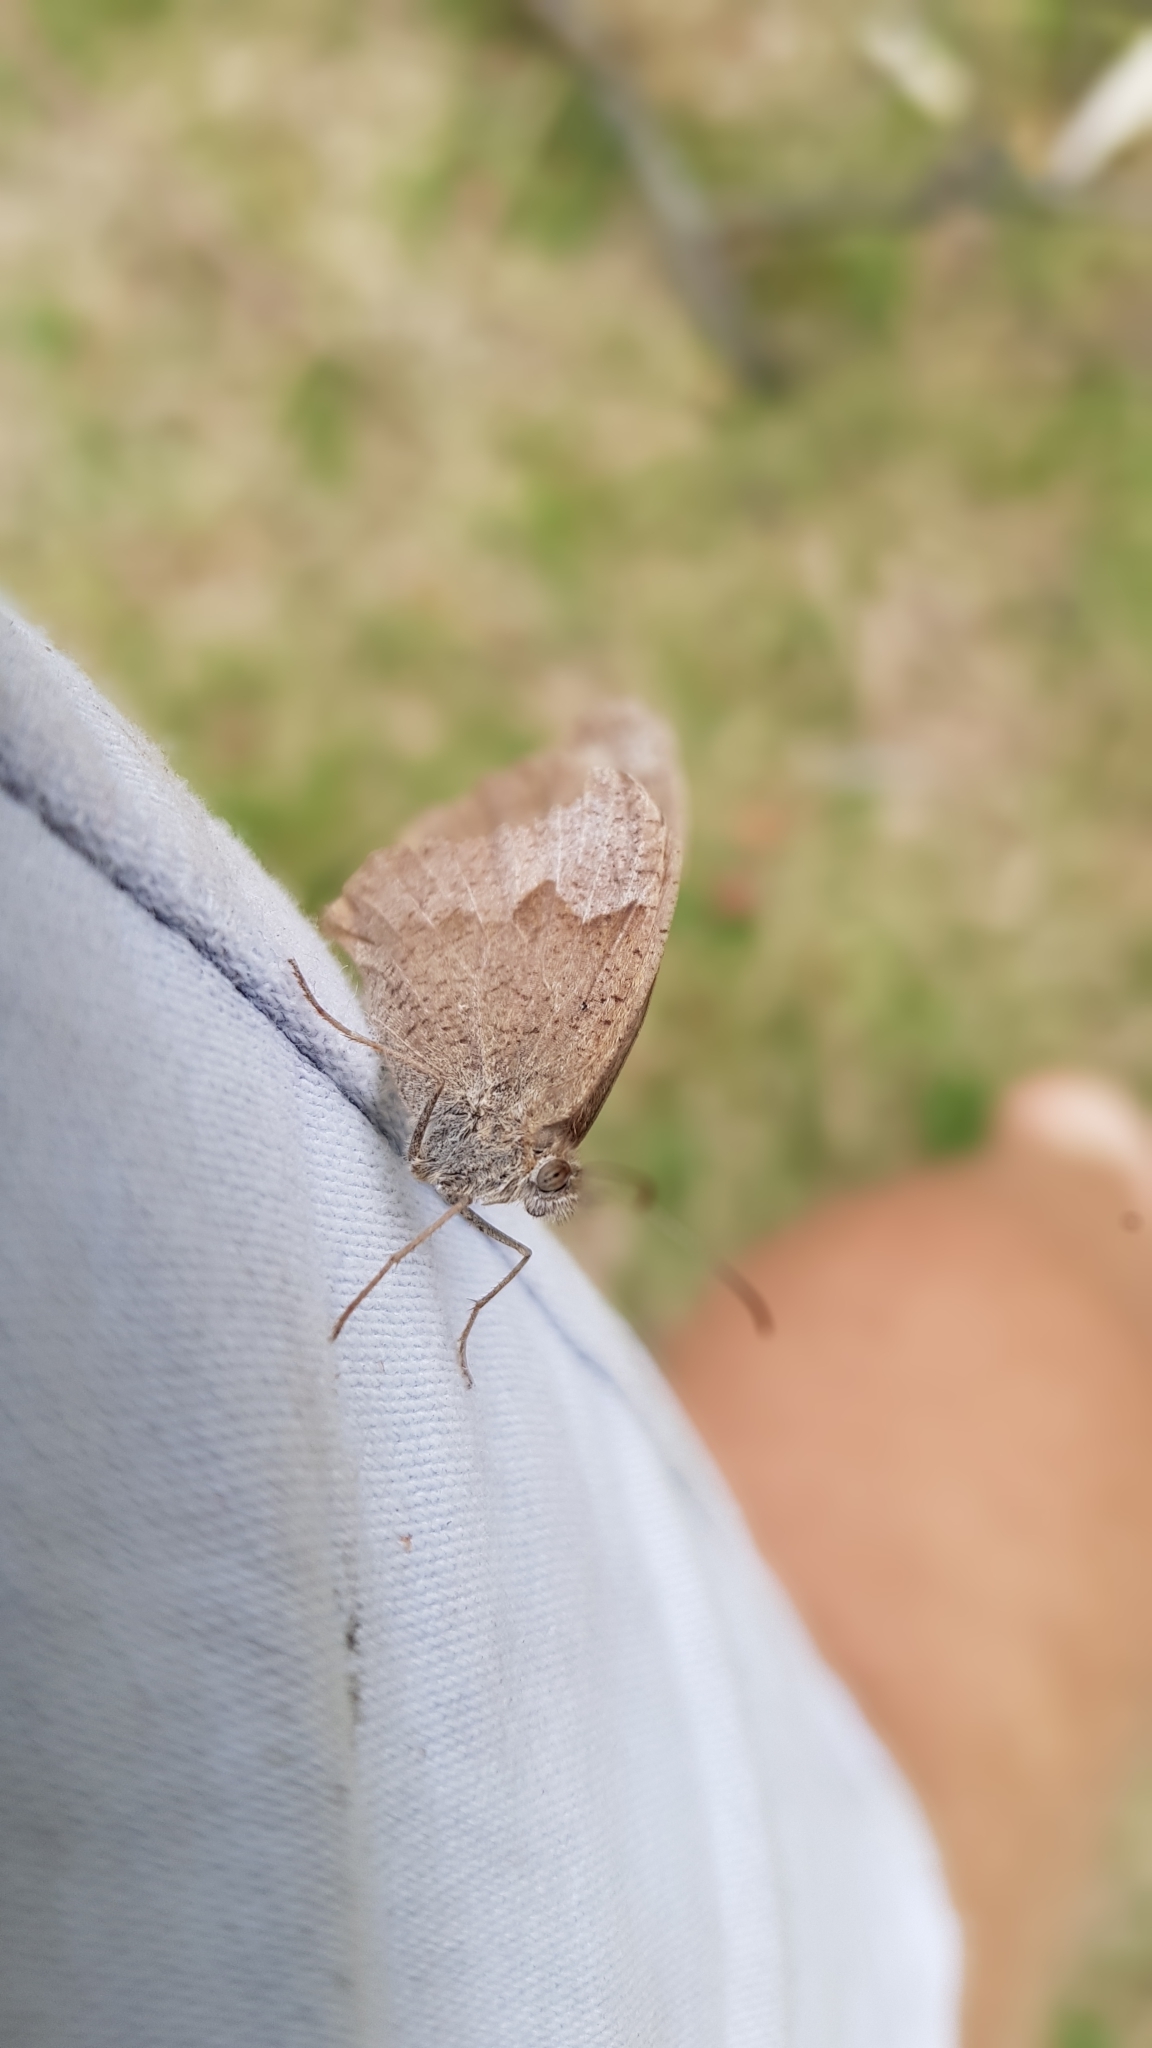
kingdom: Animalia
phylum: Arthropoda
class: Insecta
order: Lepidoptera
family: Nymphalidae
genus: Maniola
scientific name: Maniola jurtina
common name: Meadow brown
